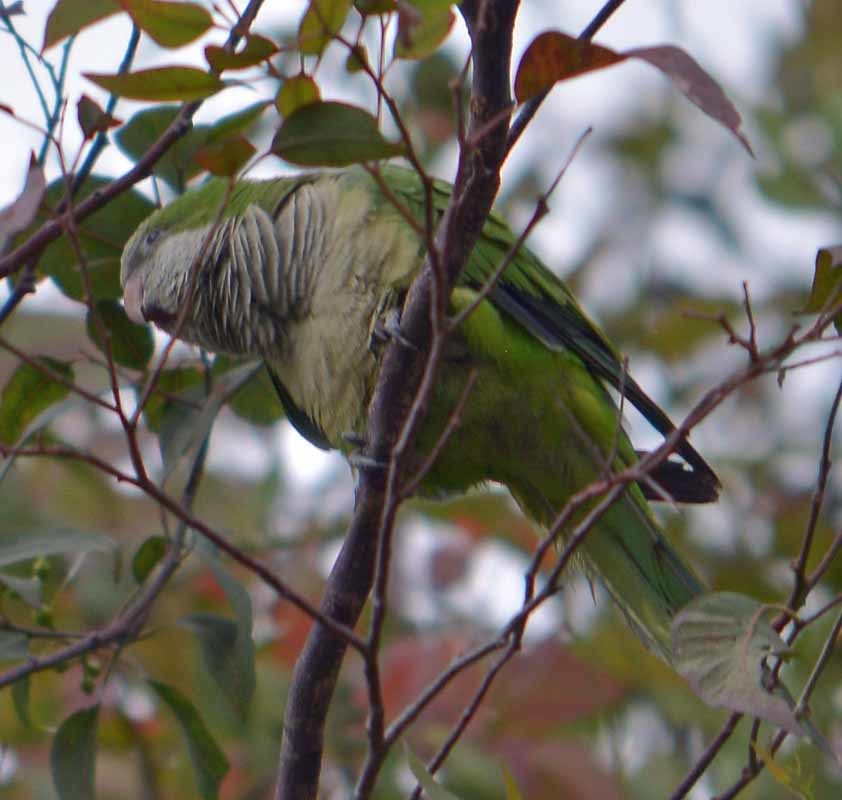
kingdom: Animalia
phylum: Chordata
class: Aves
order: Psittaciformes
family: Psittacidae
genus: Myiopsitta
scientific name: Myiopsitta monachus
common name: Monk parakeet
